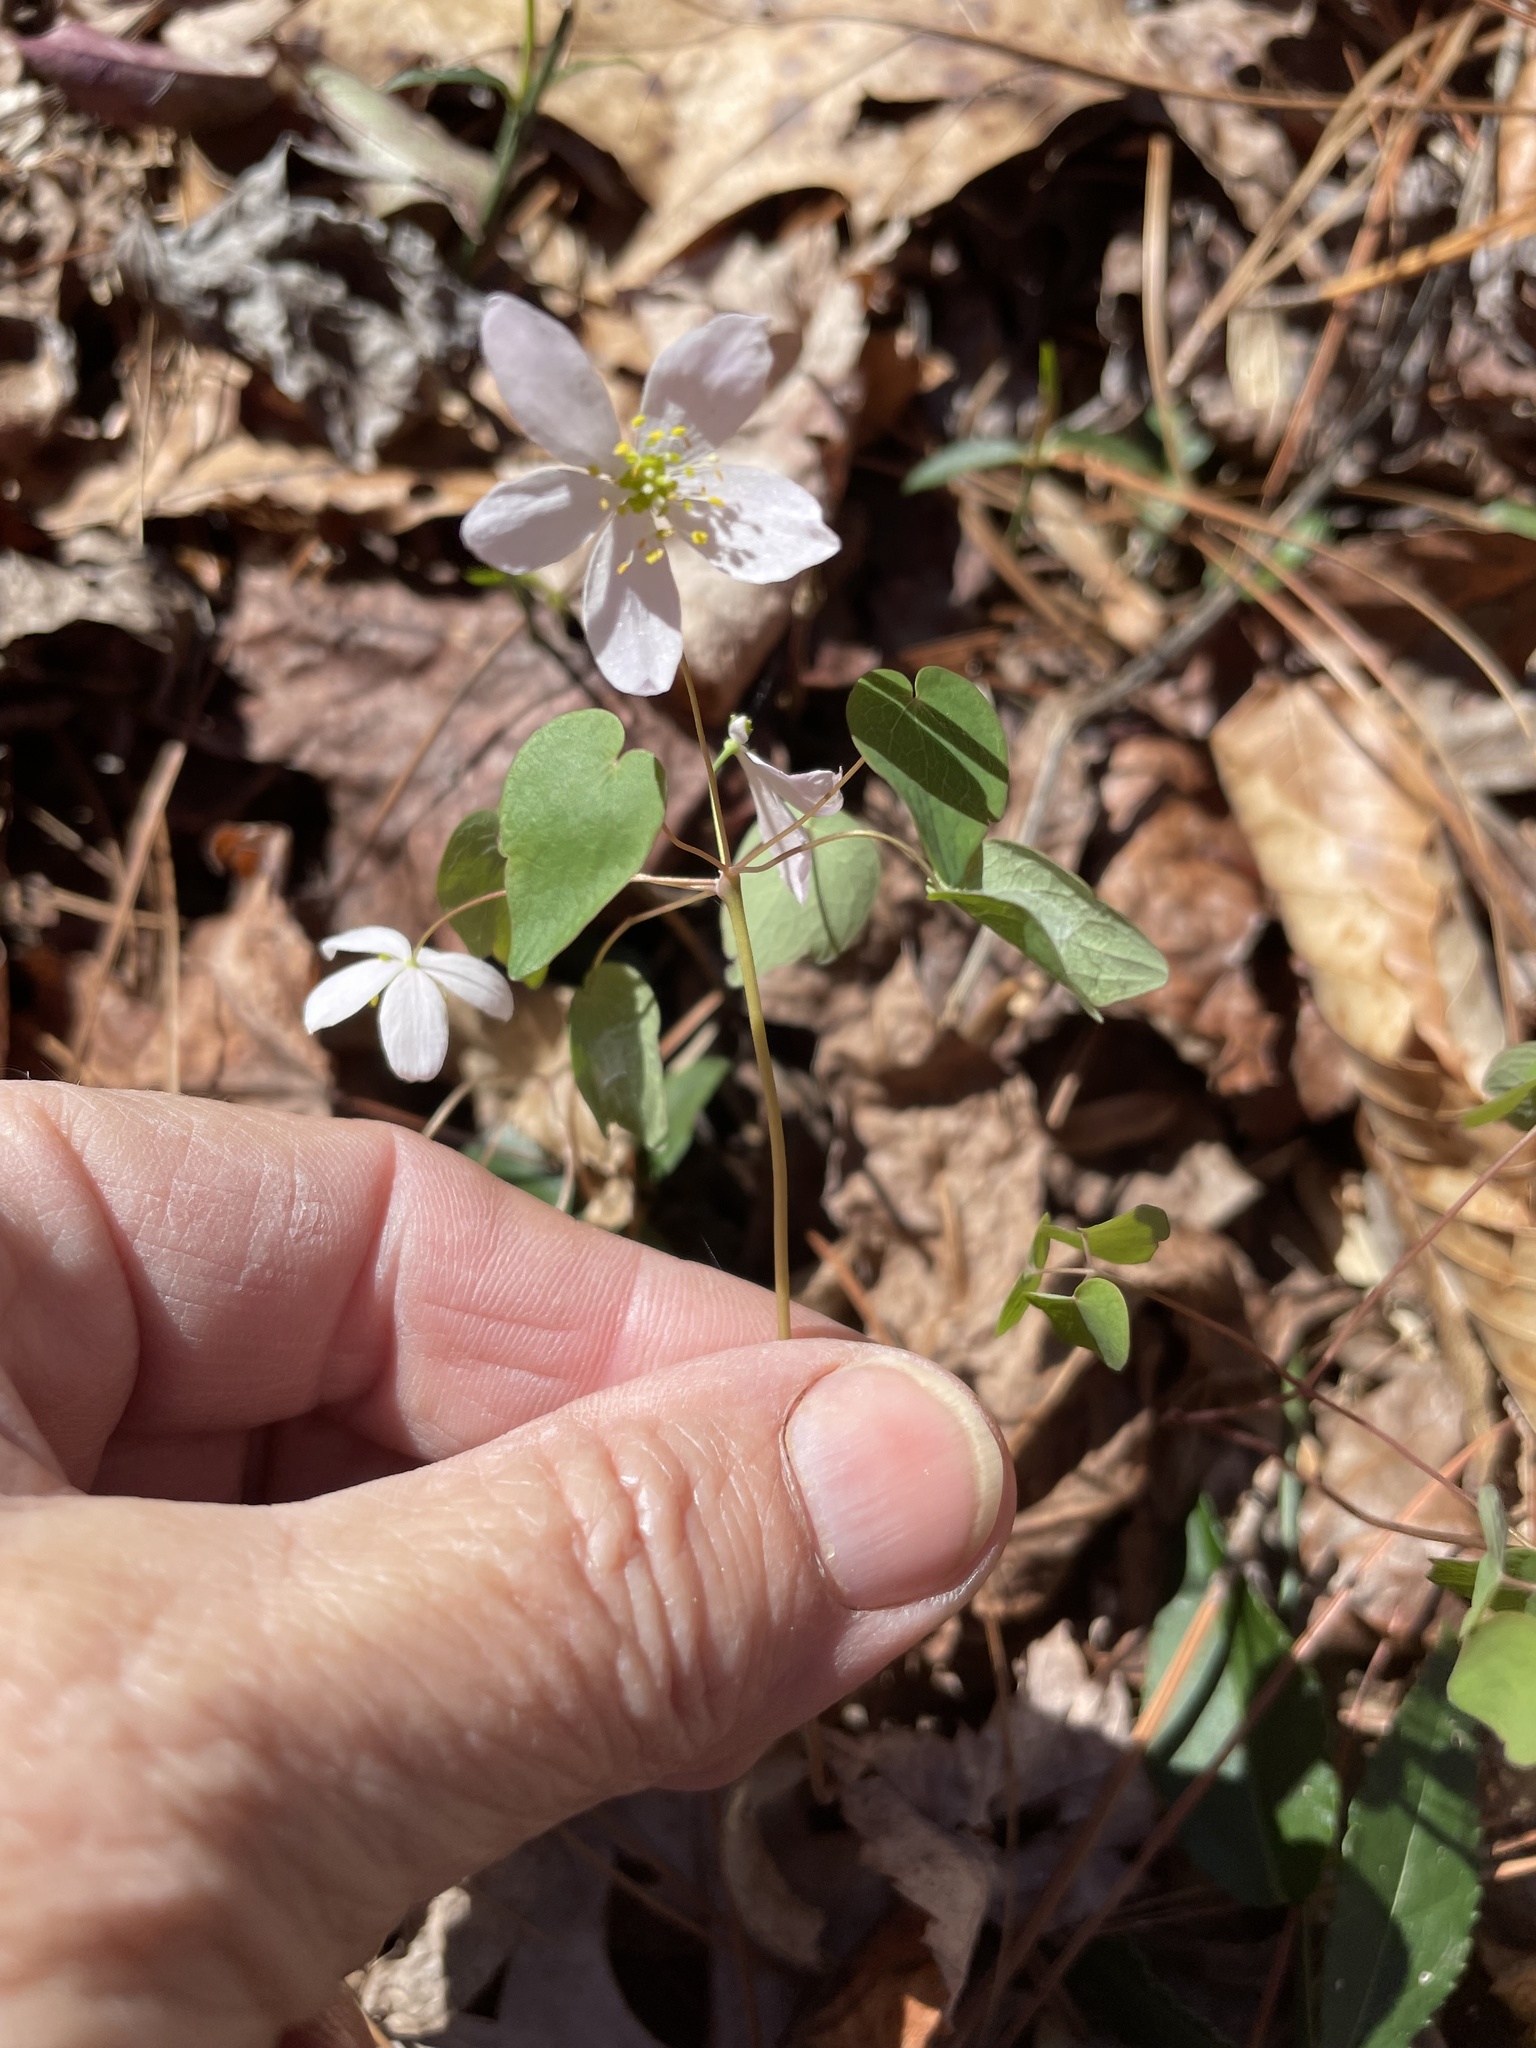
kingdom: Plantae
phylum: Tracheophyta
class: Magnoliopsida
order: Ranunculales
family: Ranunculaceae
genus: Thalictrum
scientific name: Thalictrum thalictroides
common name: Rue-anemone
